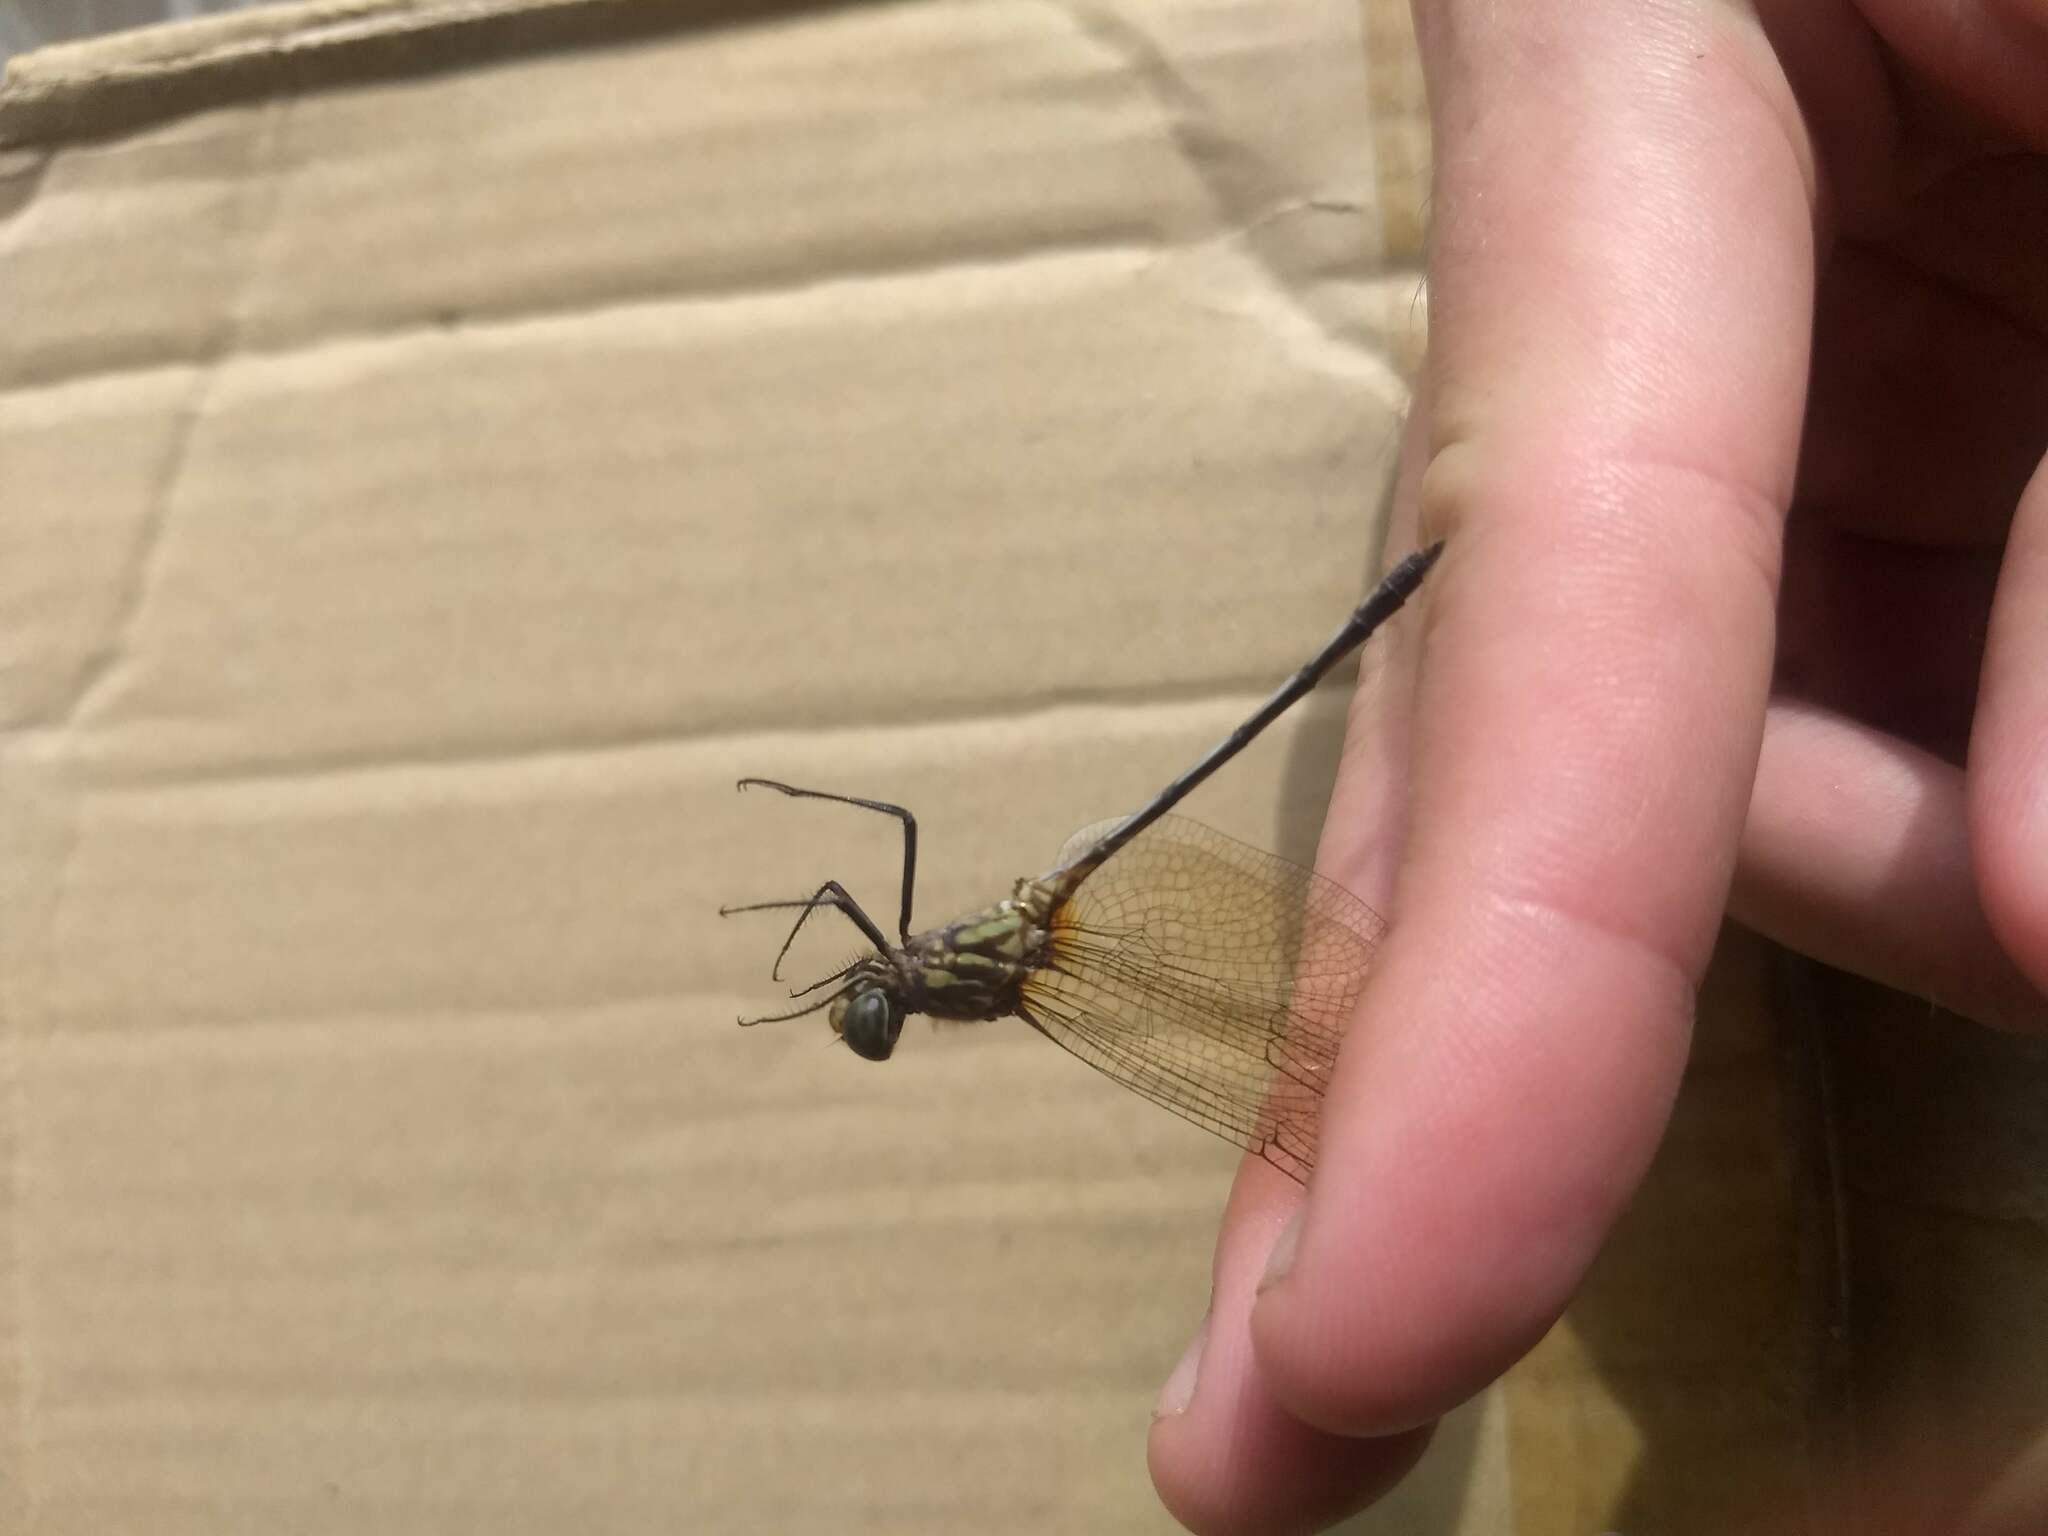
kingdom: Animalia
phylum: Arthropoda
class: Insecta
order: Odonata
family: Libellulidae
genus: Dythemis
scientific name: Dythemis sterilis
